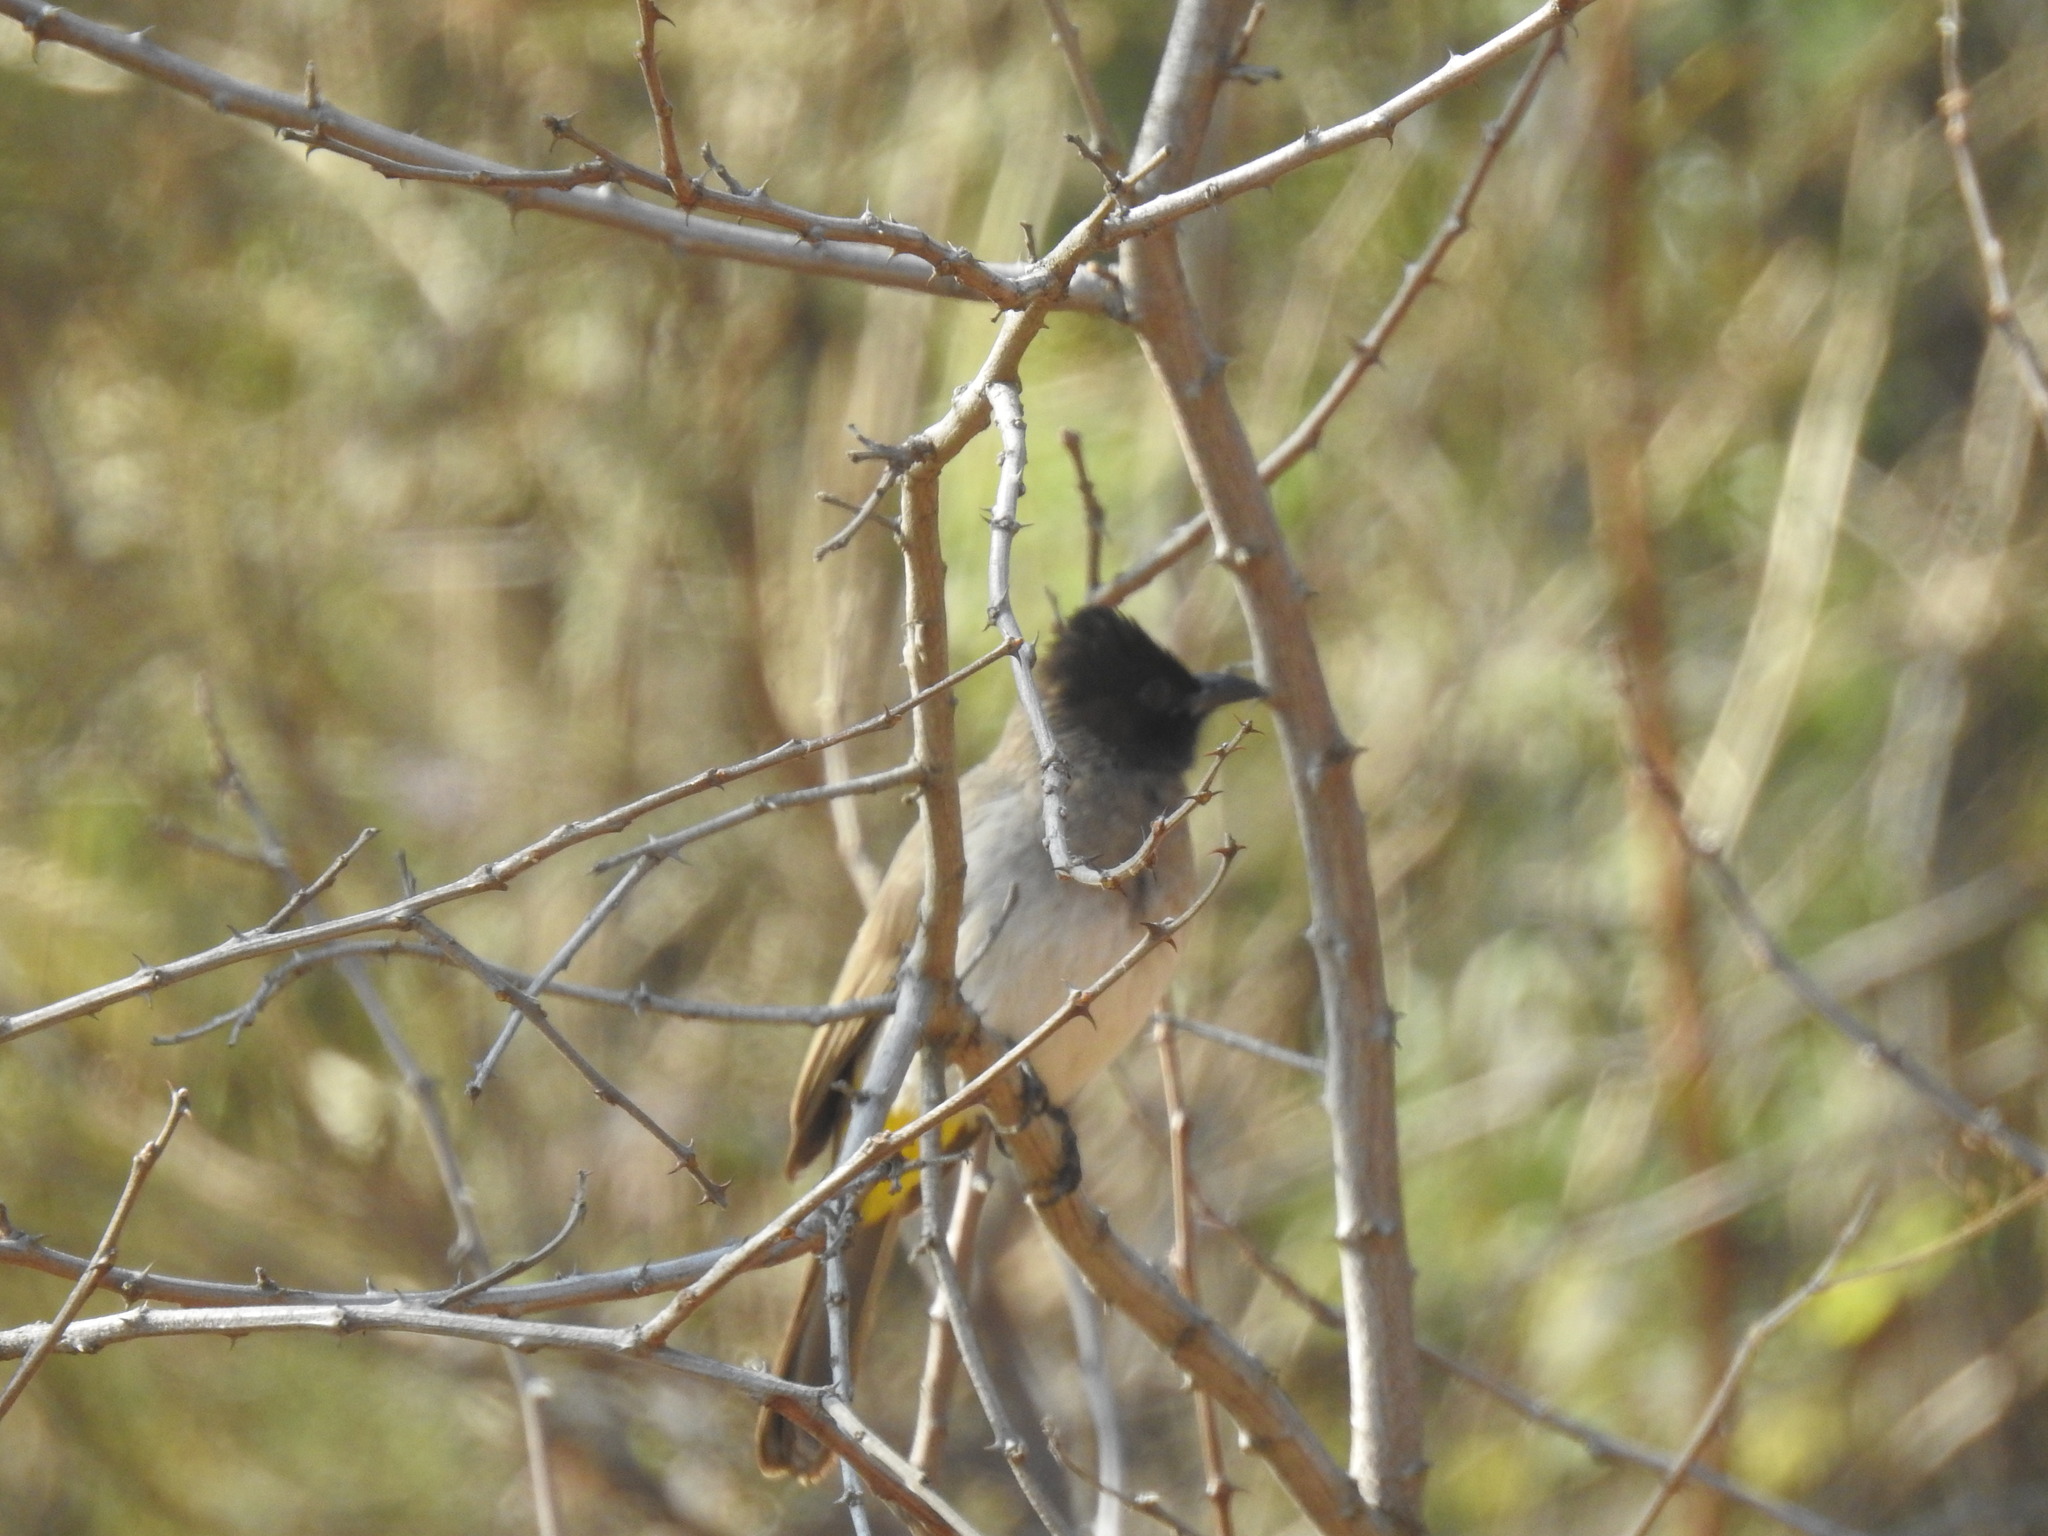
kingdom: Animalia
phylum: Chordata
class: Aves
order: Passeriformes
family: Pycnonotidae
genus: Pycnonotus
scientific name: Pycnonotus barbatus
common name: Common bulbul
